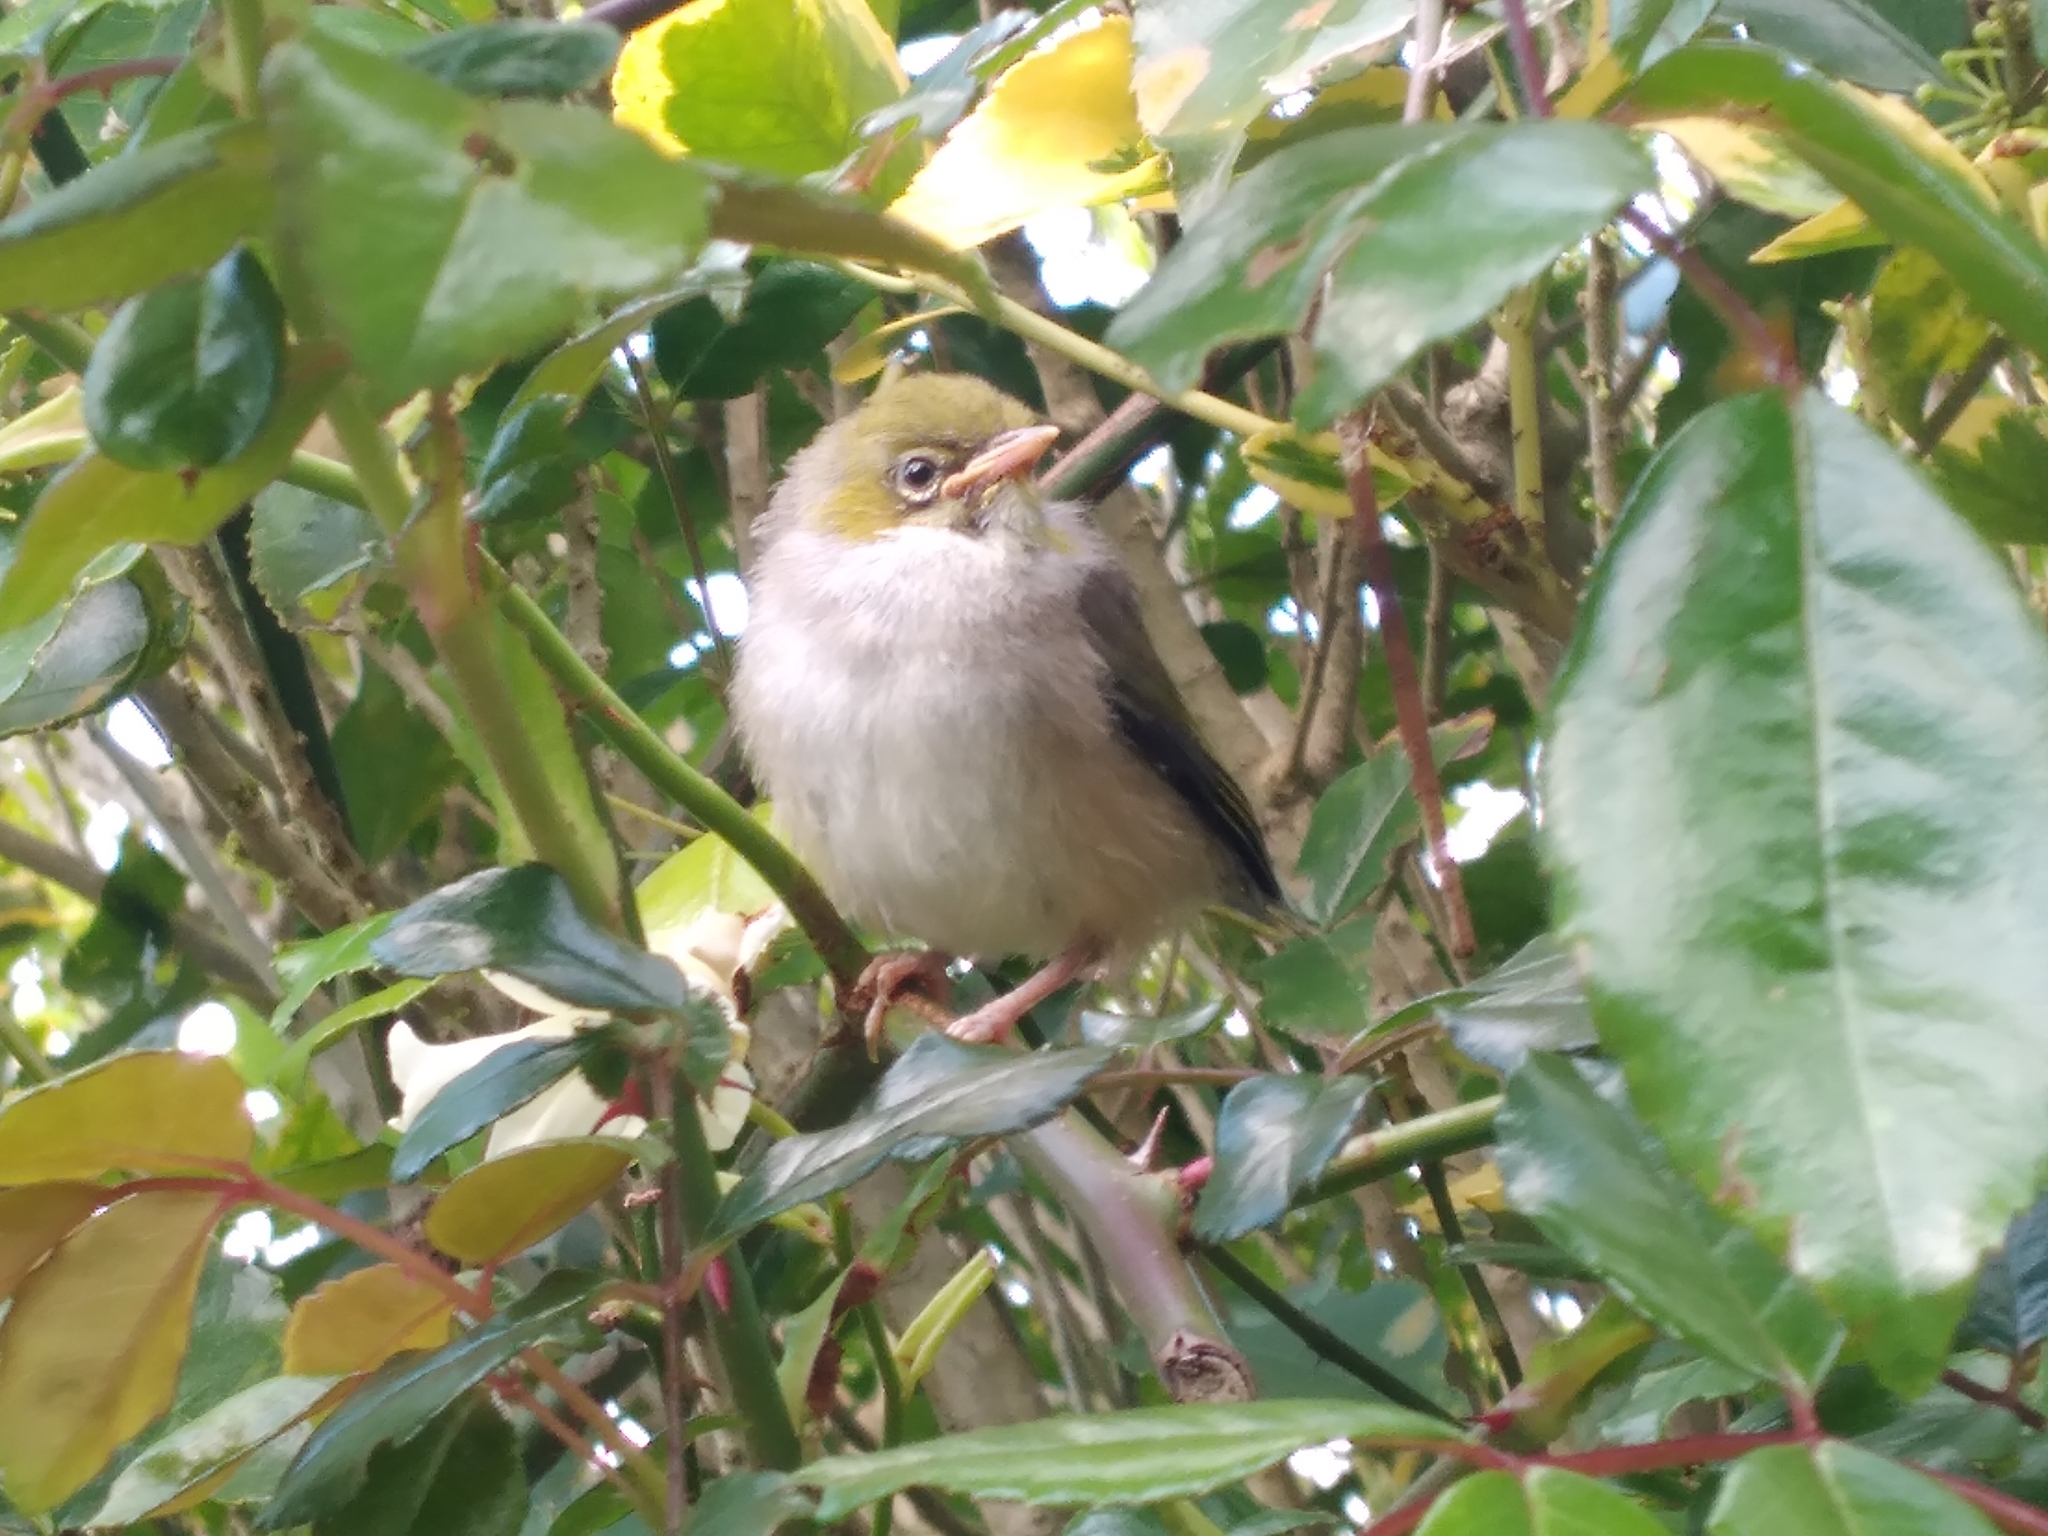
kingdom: Animalia
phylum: Chordata
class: Aves
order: Passeriformes
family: Zosteropidae
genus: Zosterops
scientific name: Zosterops lateralis
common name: Silvereye
